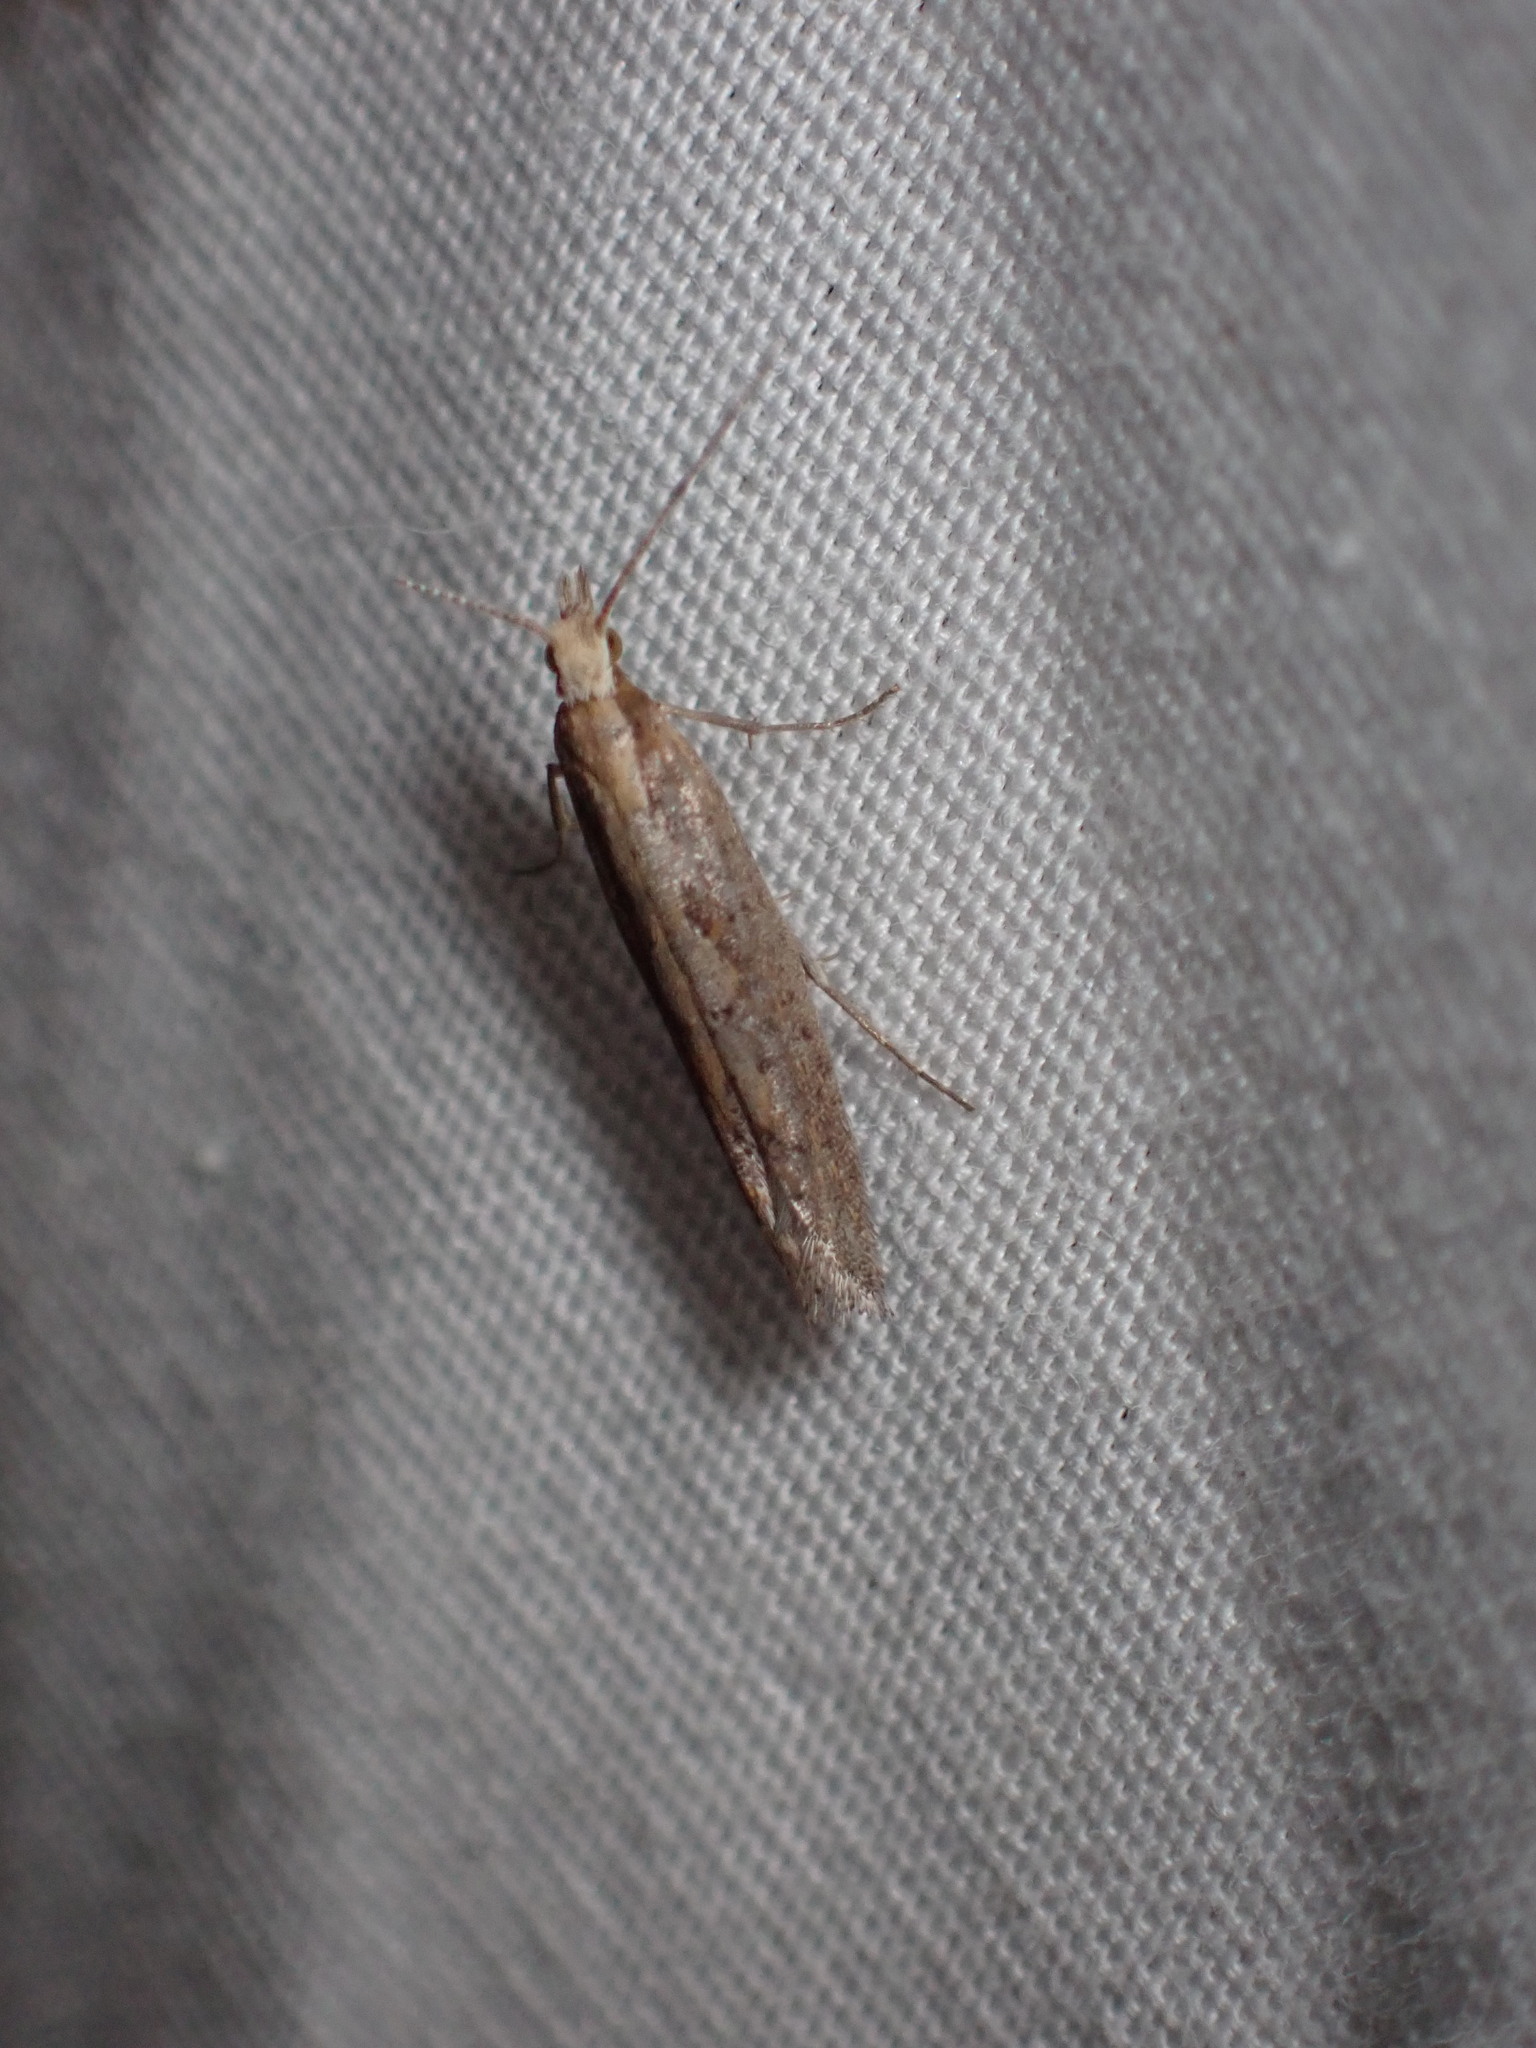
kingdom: Animalia
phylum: Arthropoda
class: Insecta
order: Lepidoptera
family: Plutellidae
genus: Plutella
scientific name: Plutella xylostella
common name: Diamond-back moth
